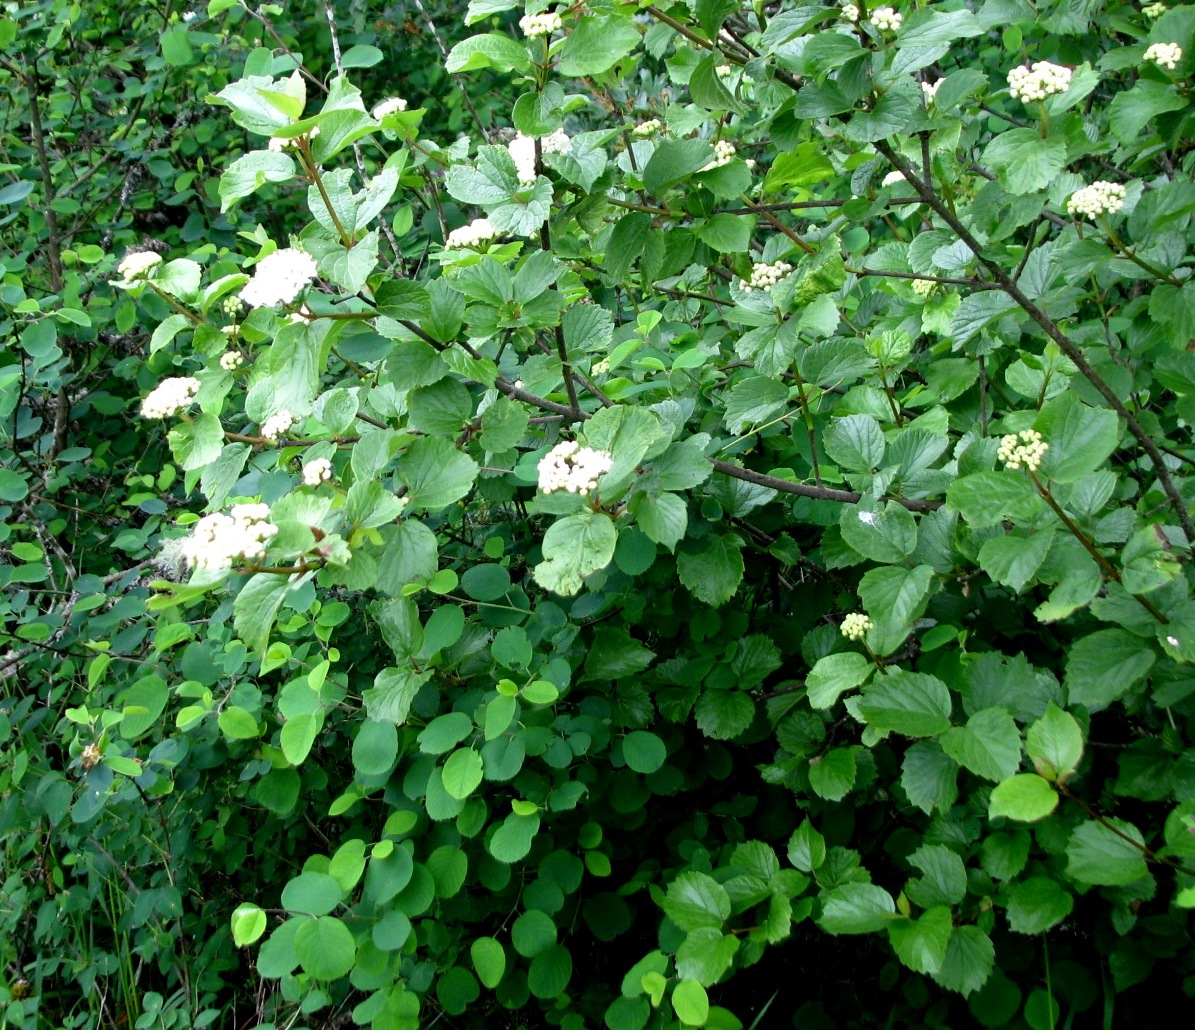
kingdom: Plantae
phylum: Tracheophyta
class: Magnoliopsida
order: Dipsacales
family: Viburnaceae
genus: Viburnum
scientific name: Viburnum ellipticum
